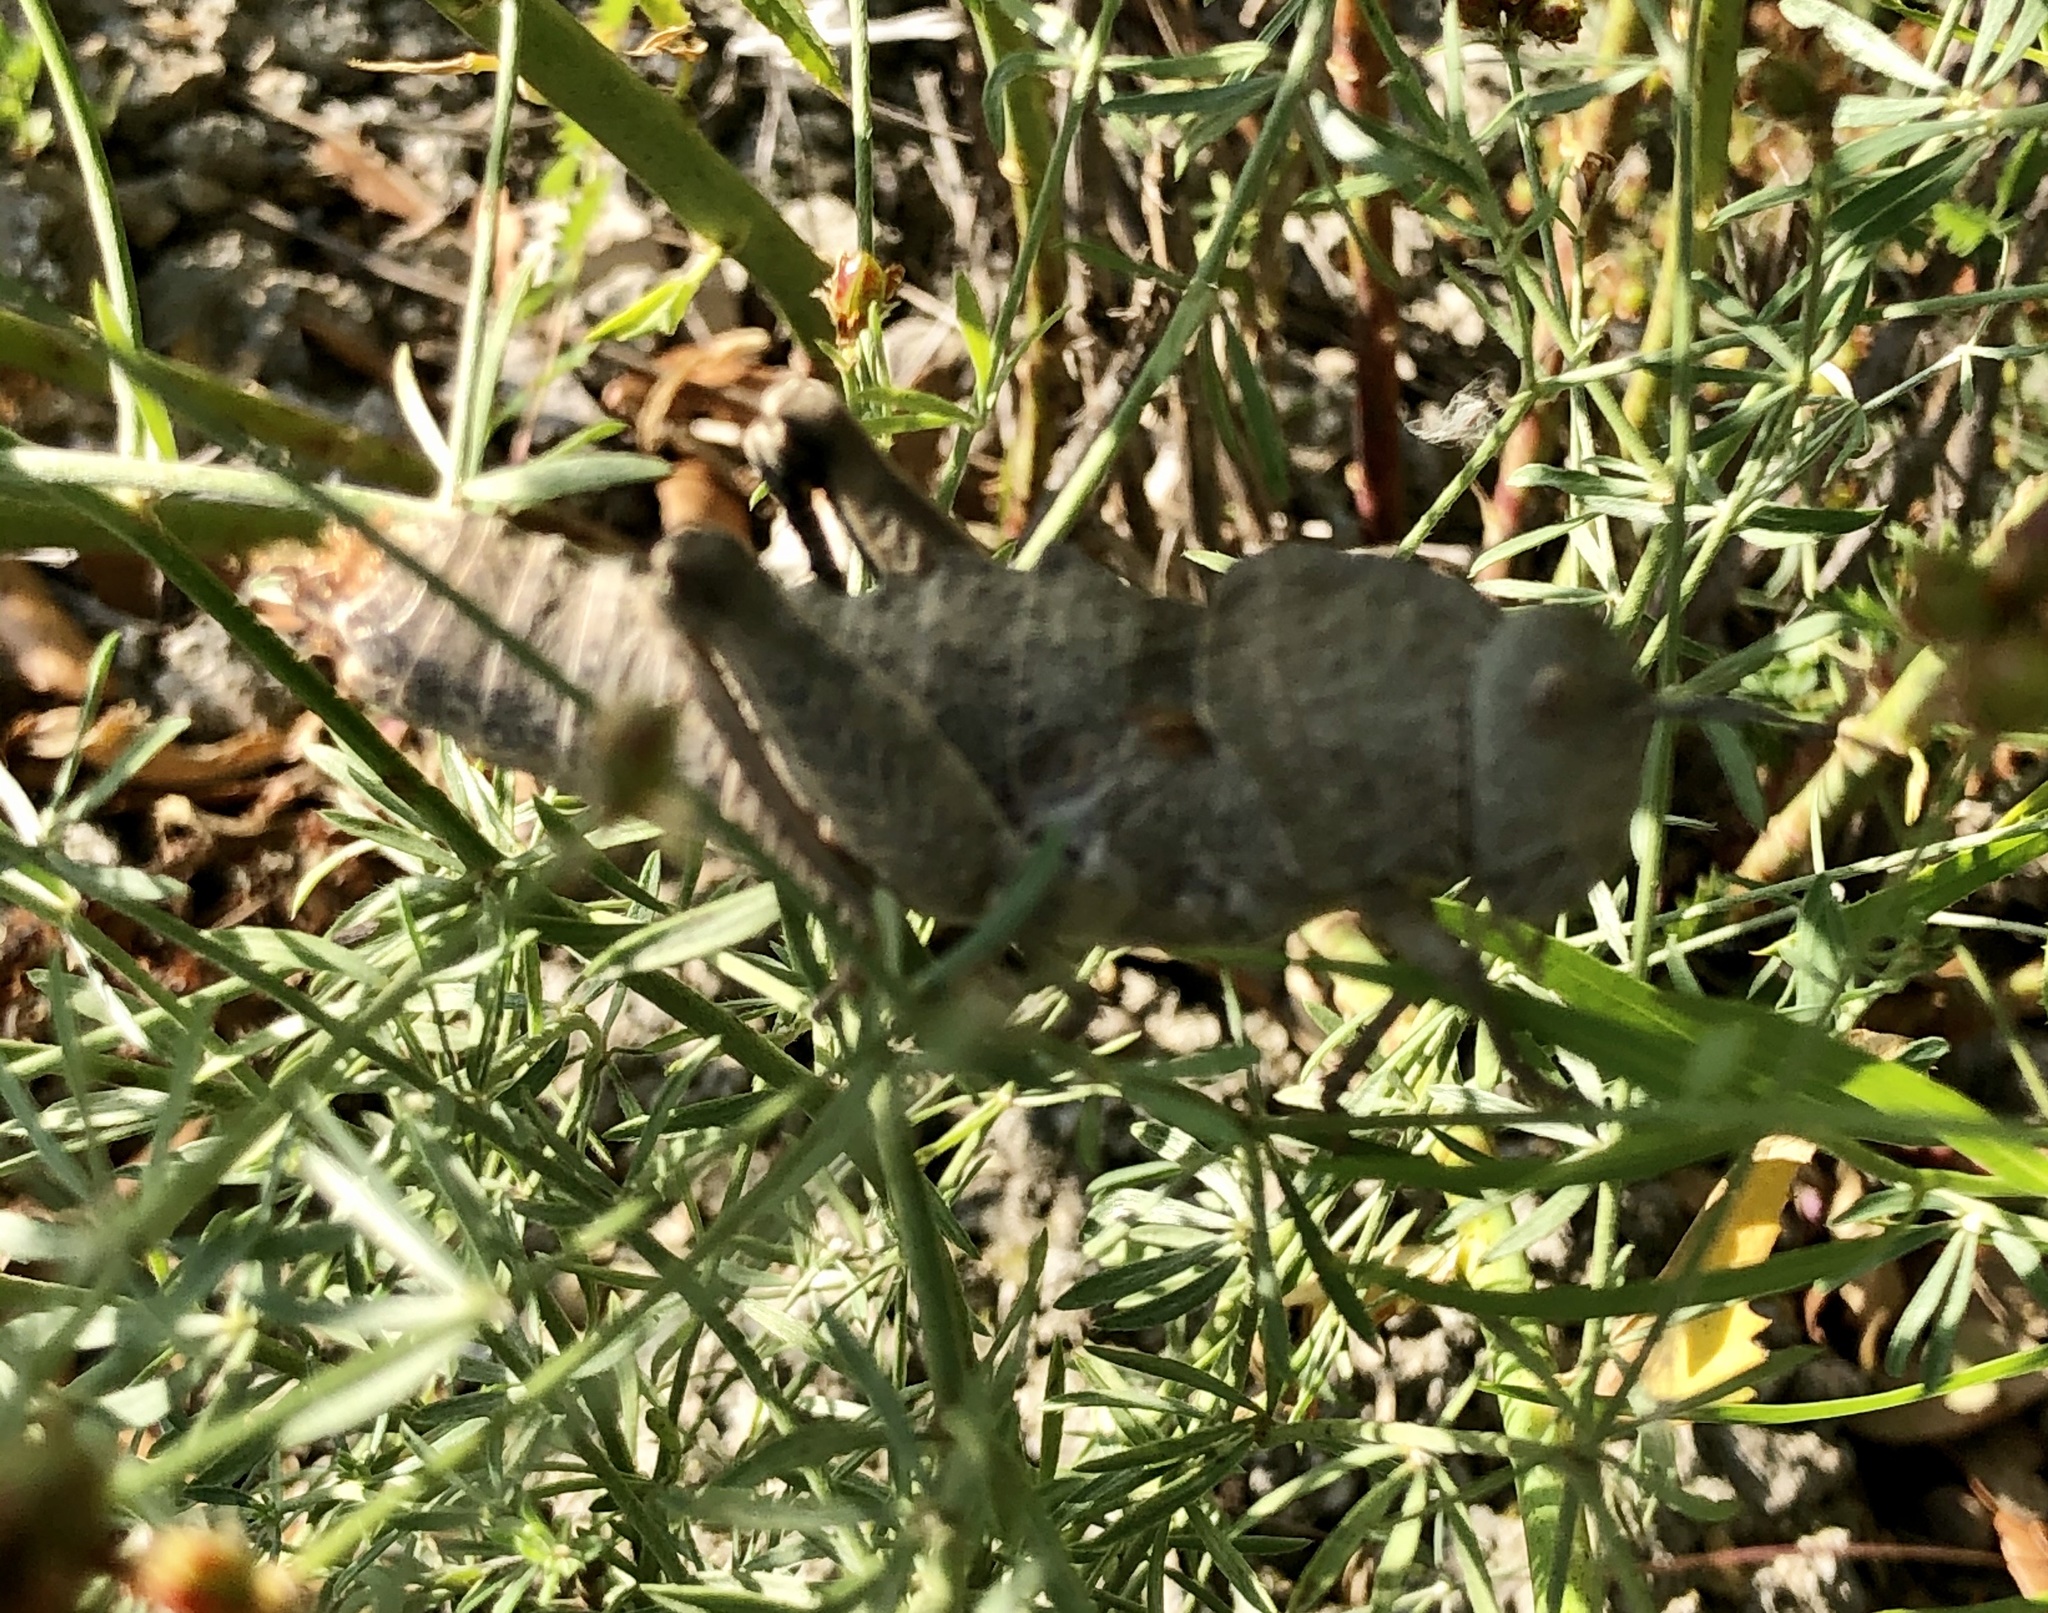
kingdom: Animalia
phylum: Arthropoda
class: Insecta
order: Orthoptera
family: Pamphagidae
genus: Ocnerodes
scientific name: Ocnerodes brunnerii
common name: Brunner's stone grasshopper
